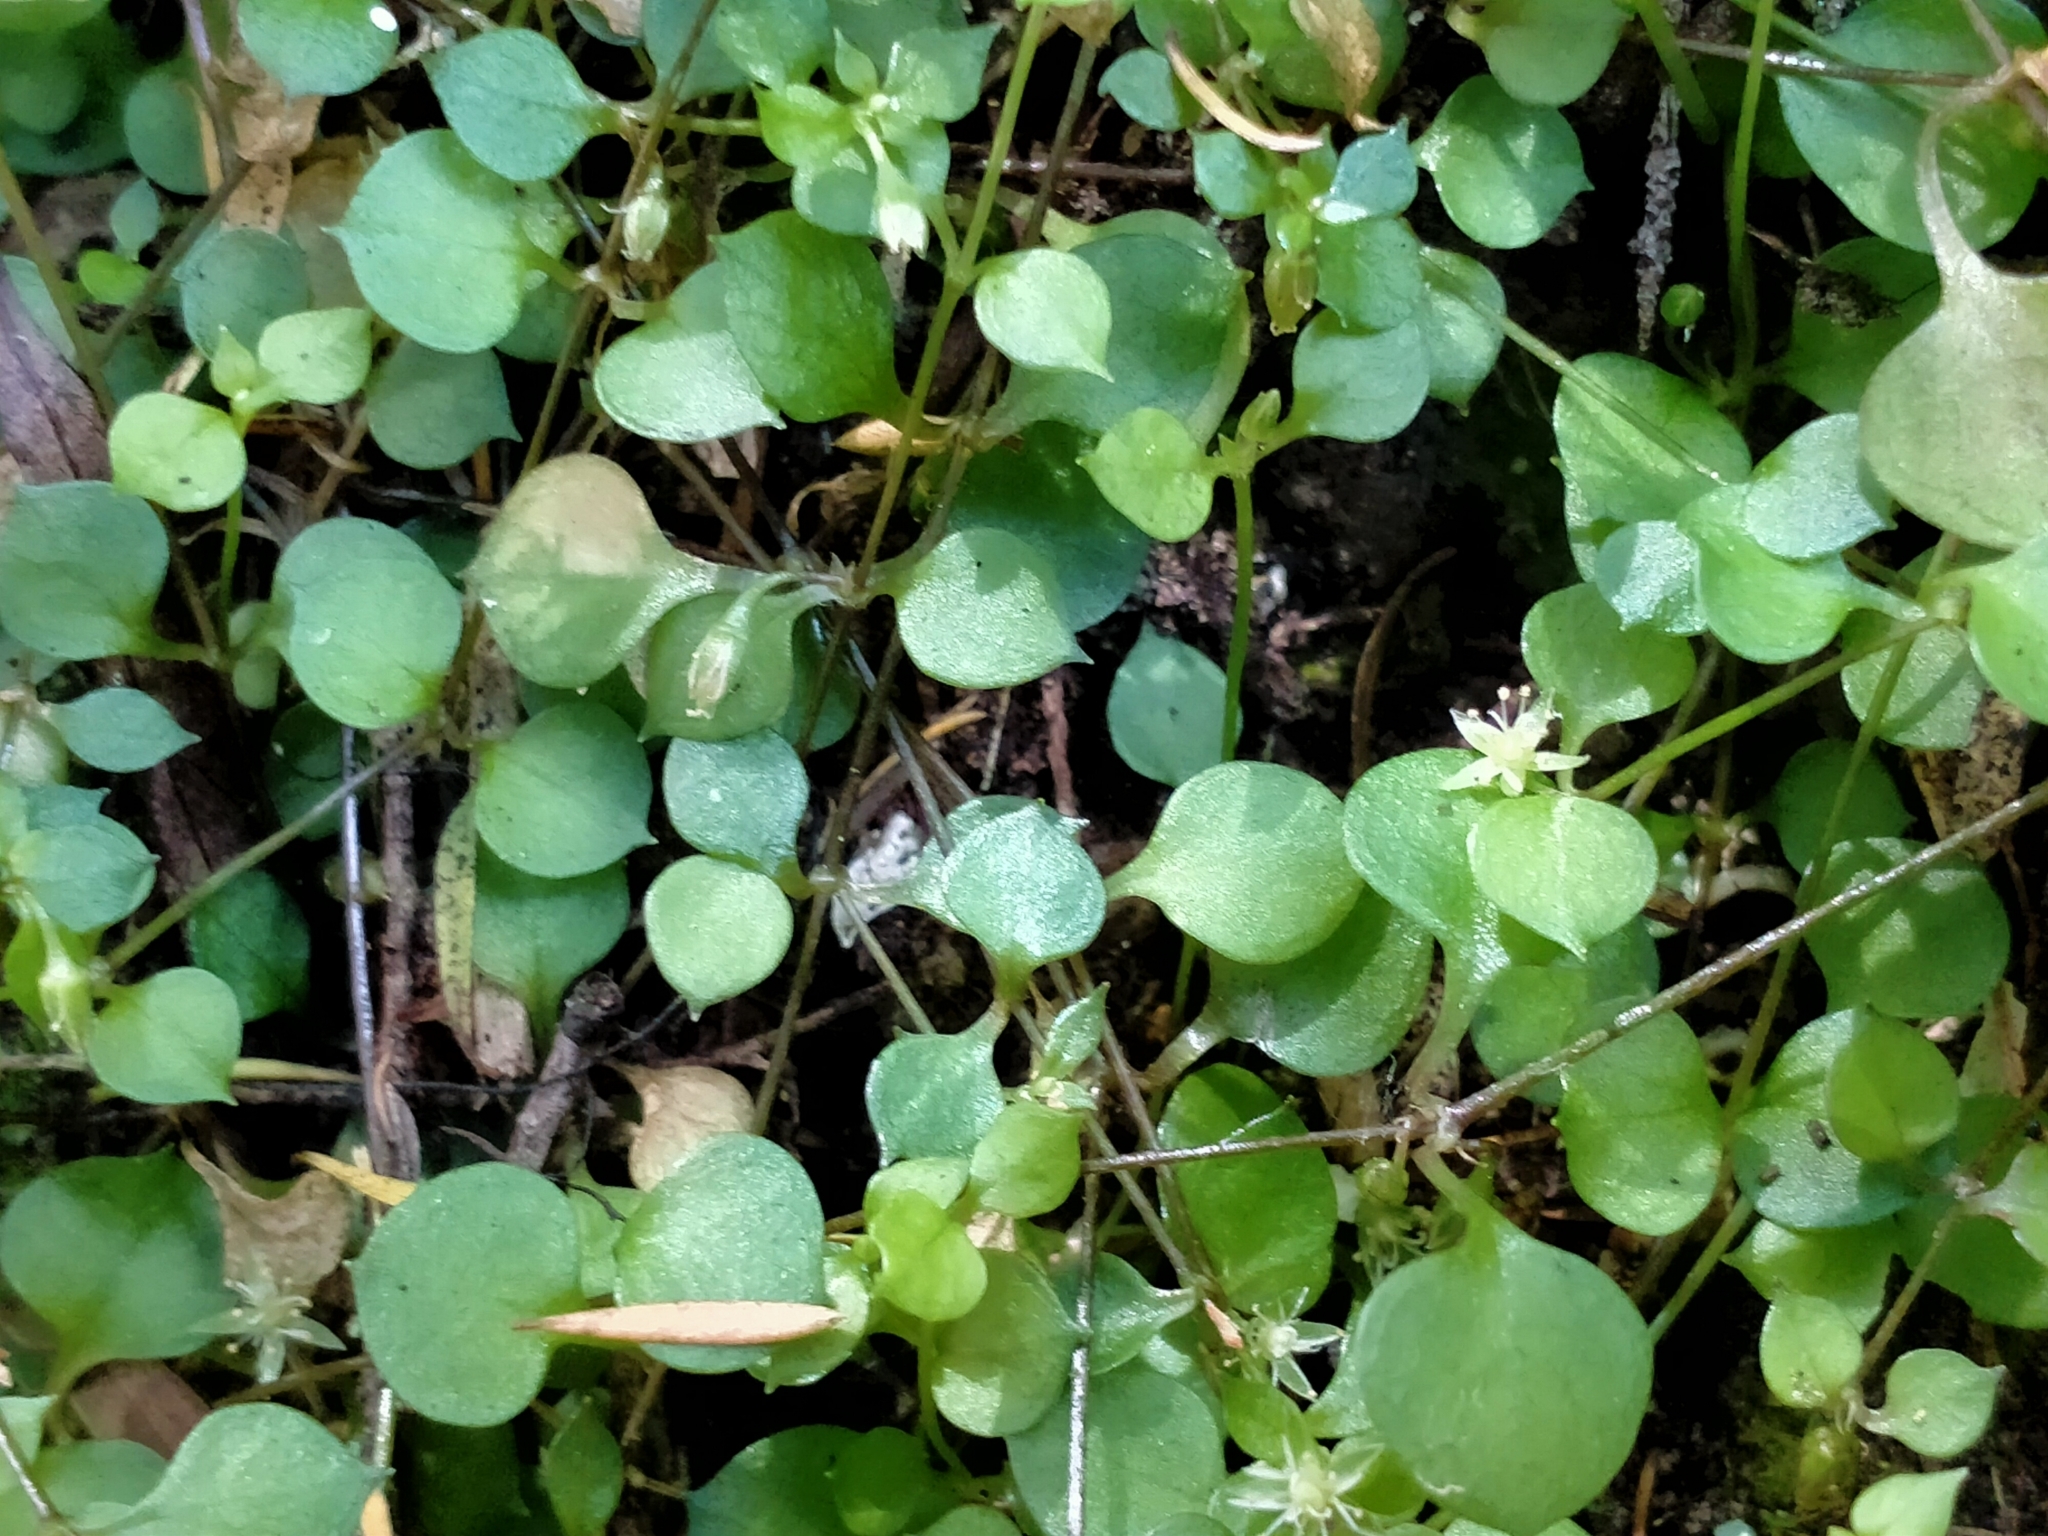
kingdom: Plantae
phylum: Tracheophyta
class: Magnoliopsida
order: Caryophyllales
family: Caryophyllaceae
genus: Stellaria
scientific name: Stellaria parviflora
